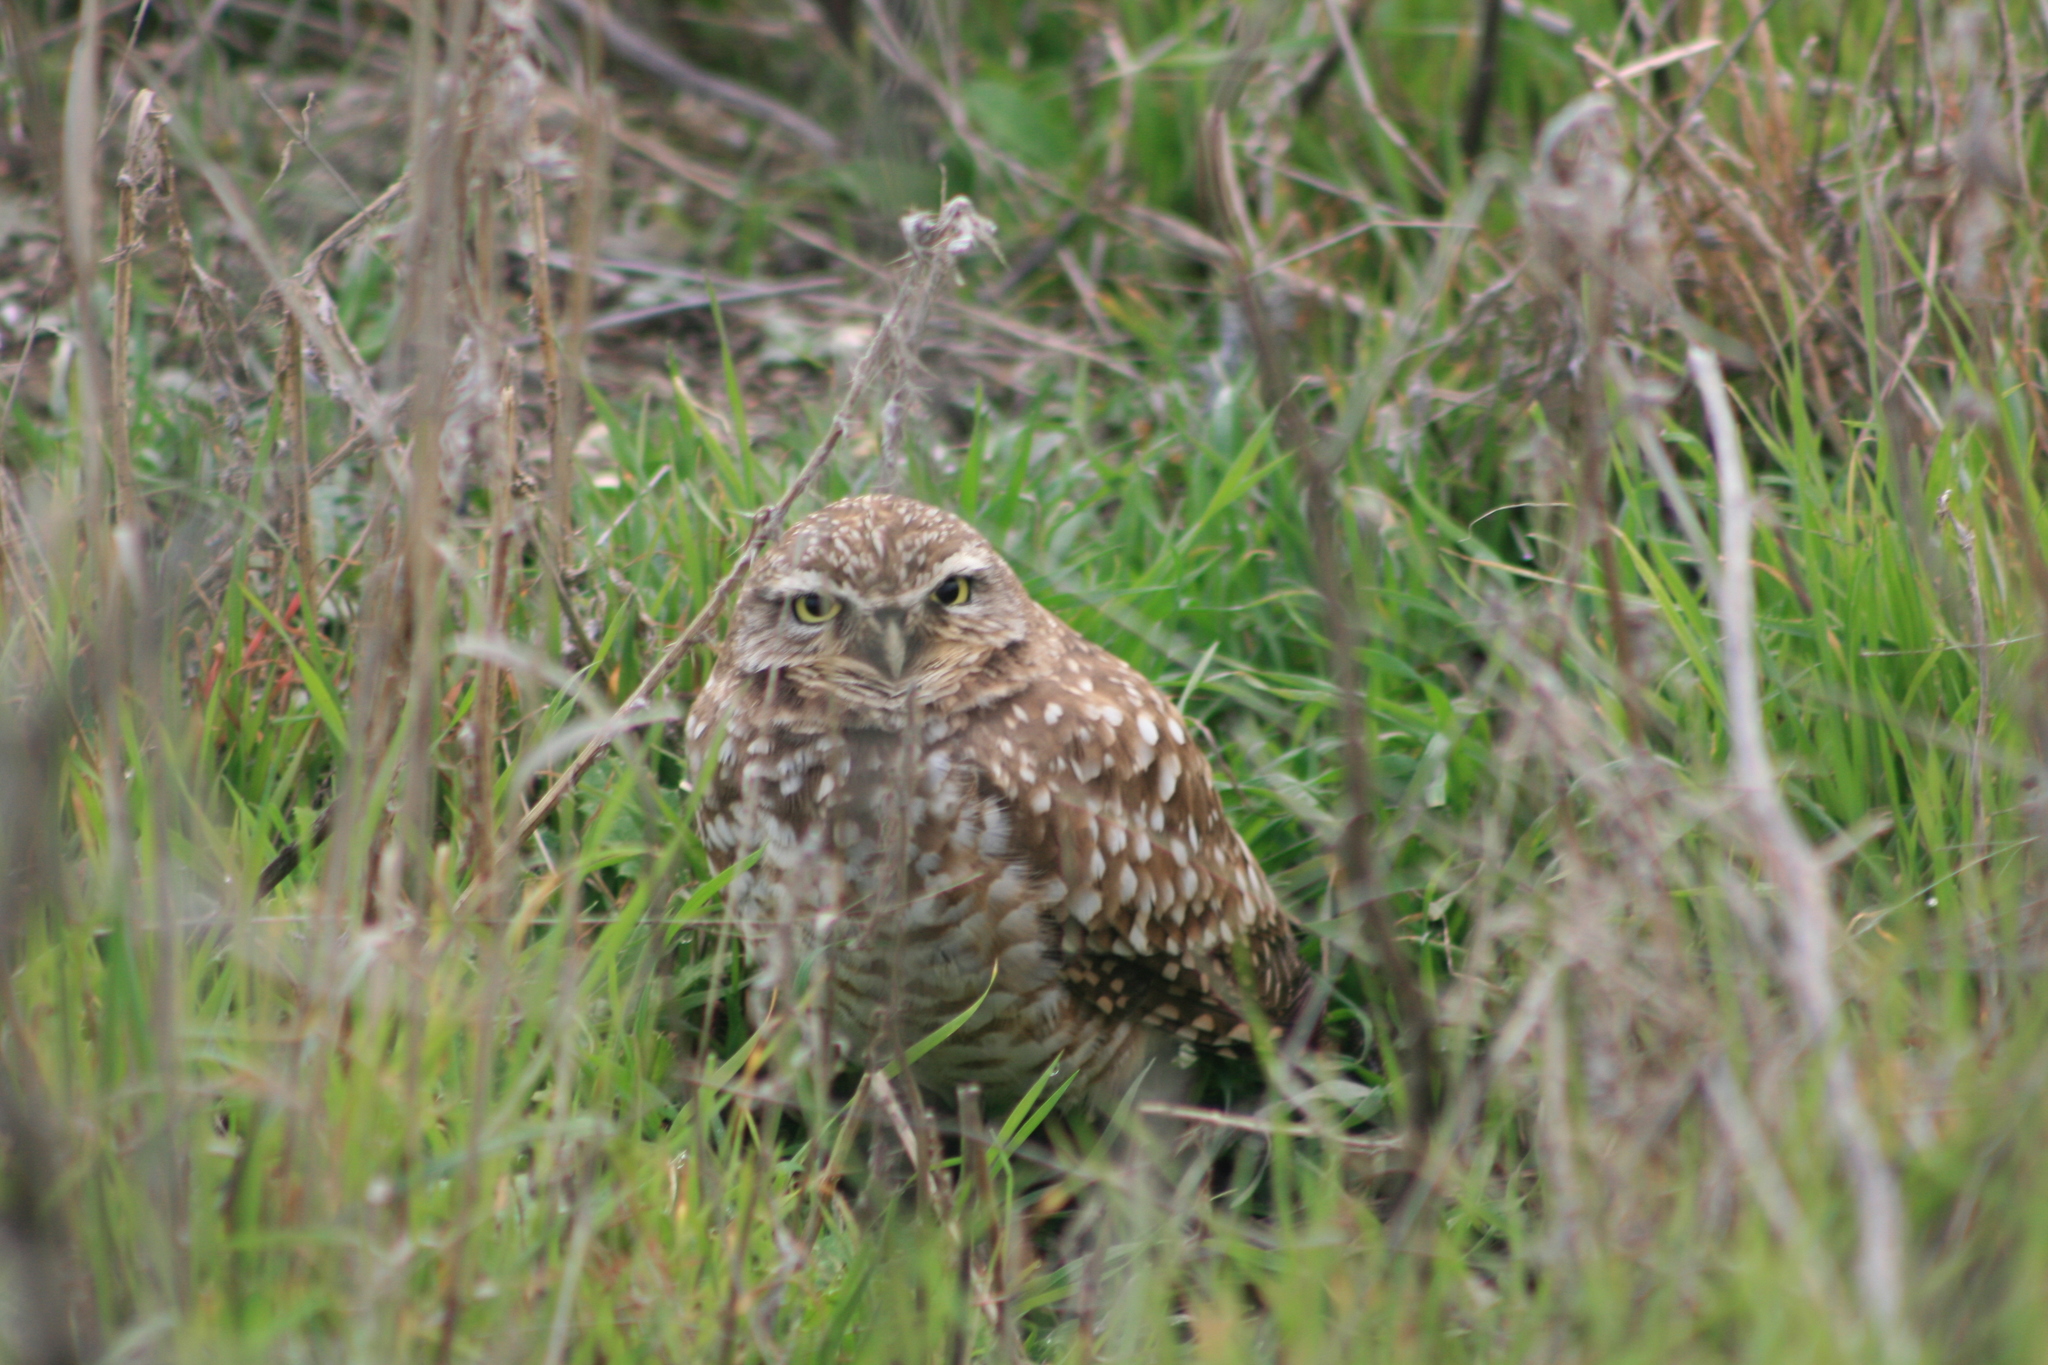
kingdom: Animalia
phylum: Chordata
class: Aves
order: Strigiformes
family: Strigidae
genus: Athene
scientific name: Athene cunicularia
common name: Burrowing owl
